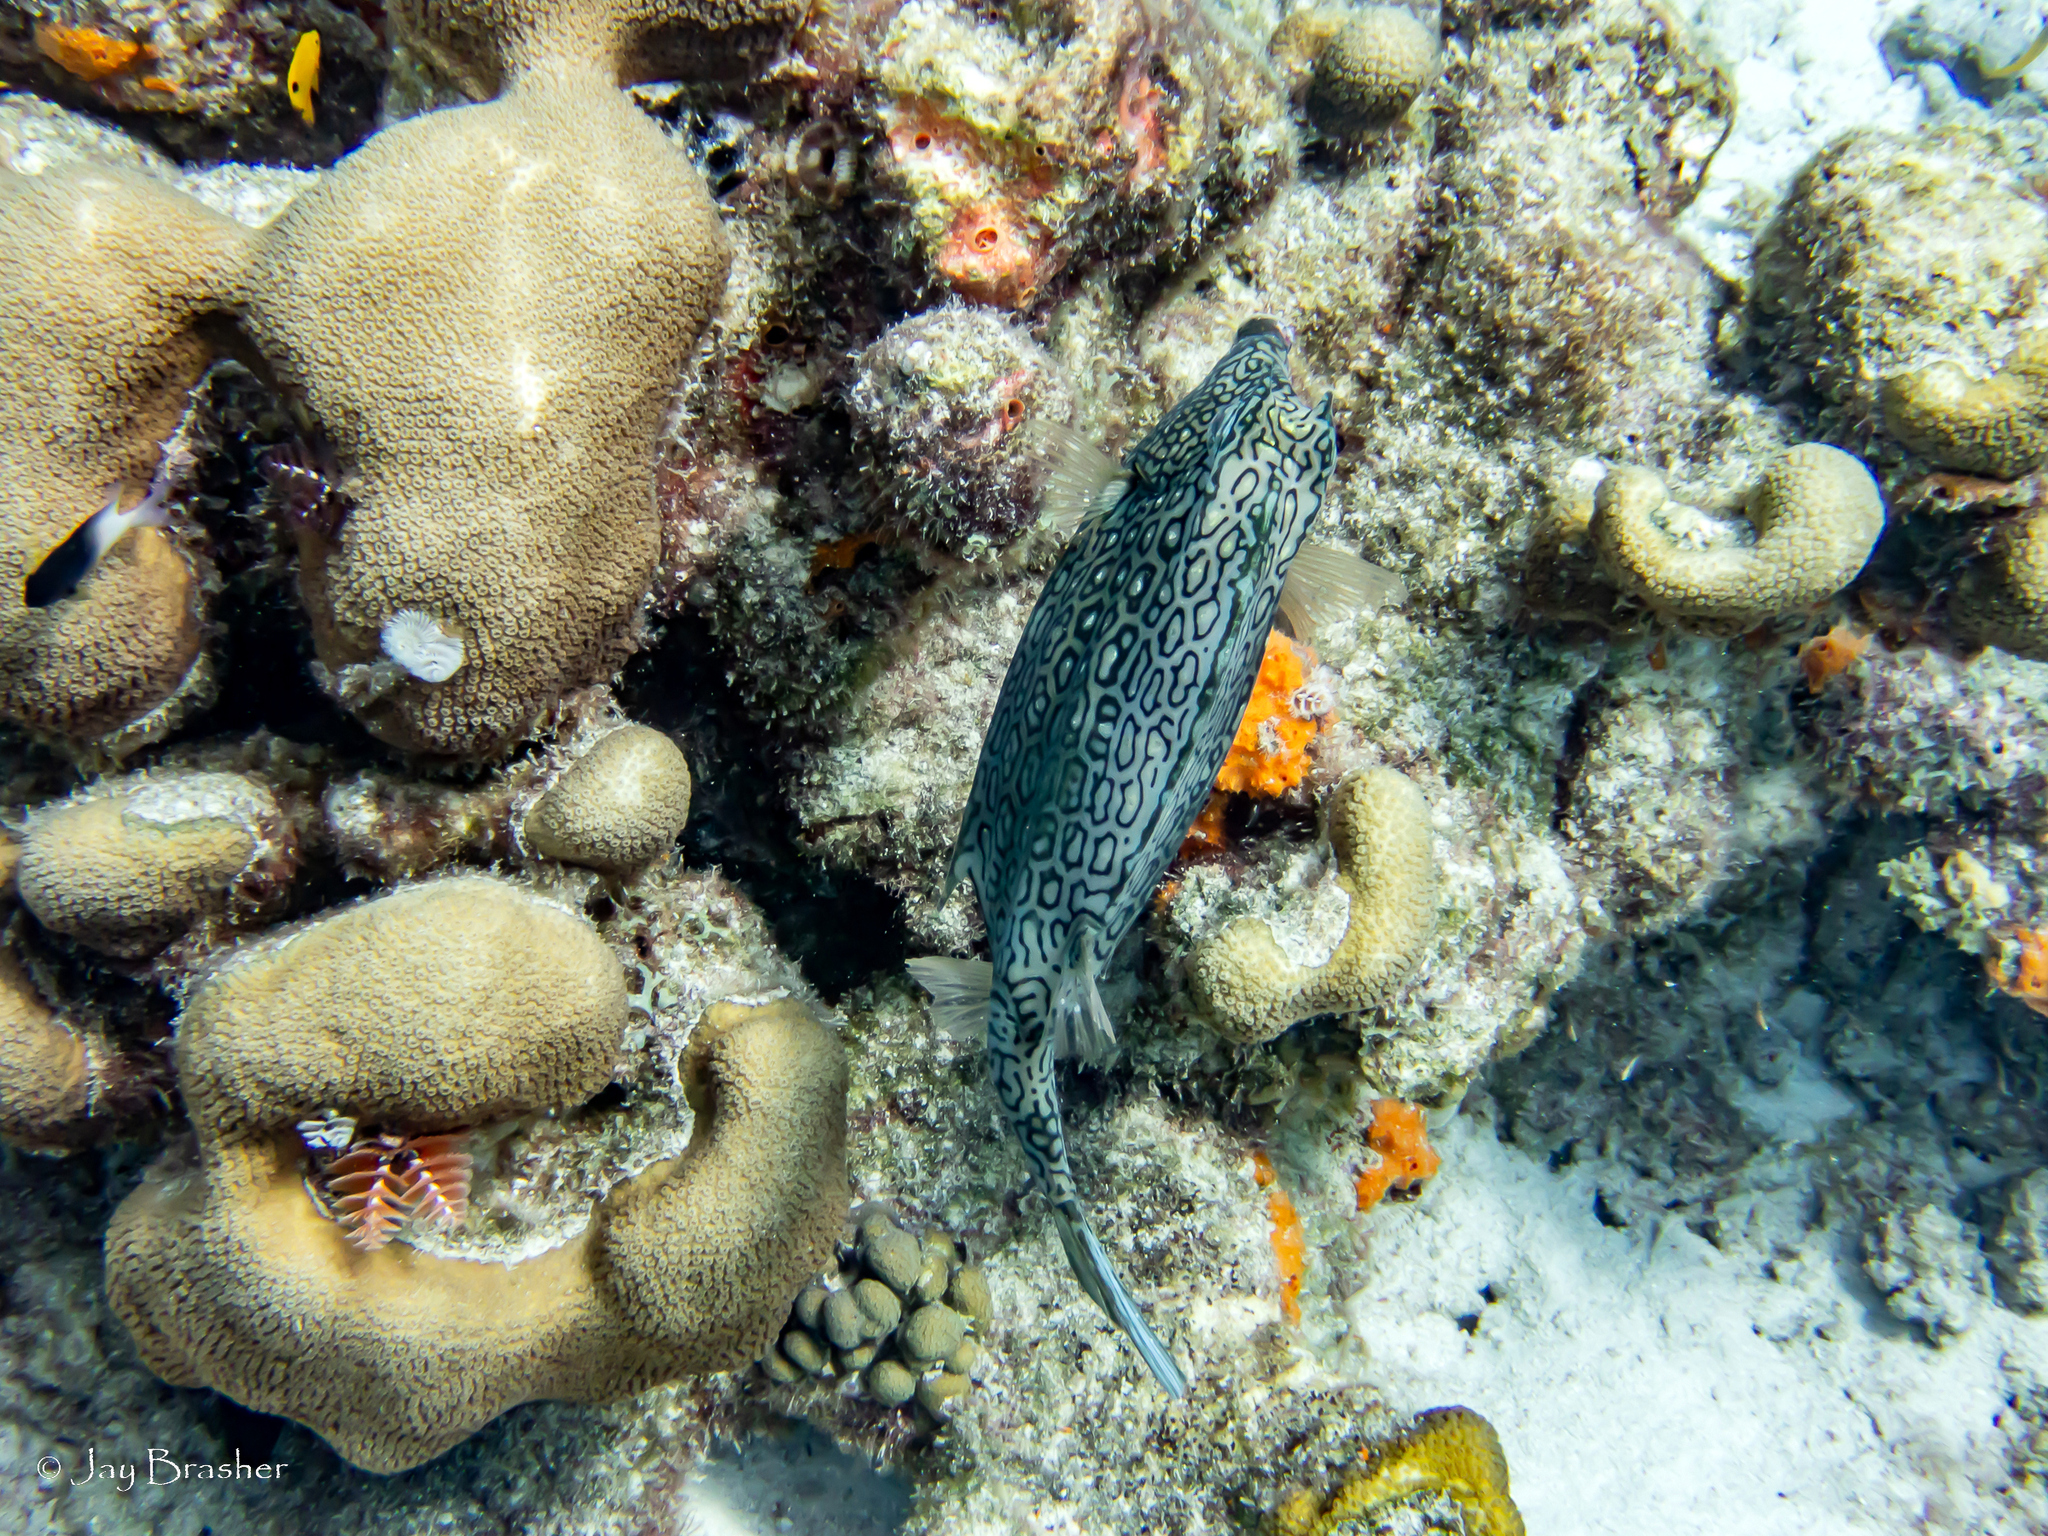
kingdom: Animalia
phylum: Chordata
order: Tetraodontiformes
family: Ostraciidae
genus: Acanthostracion
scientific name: Acanthostracion polygonius
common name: Honeycomb cowfish
